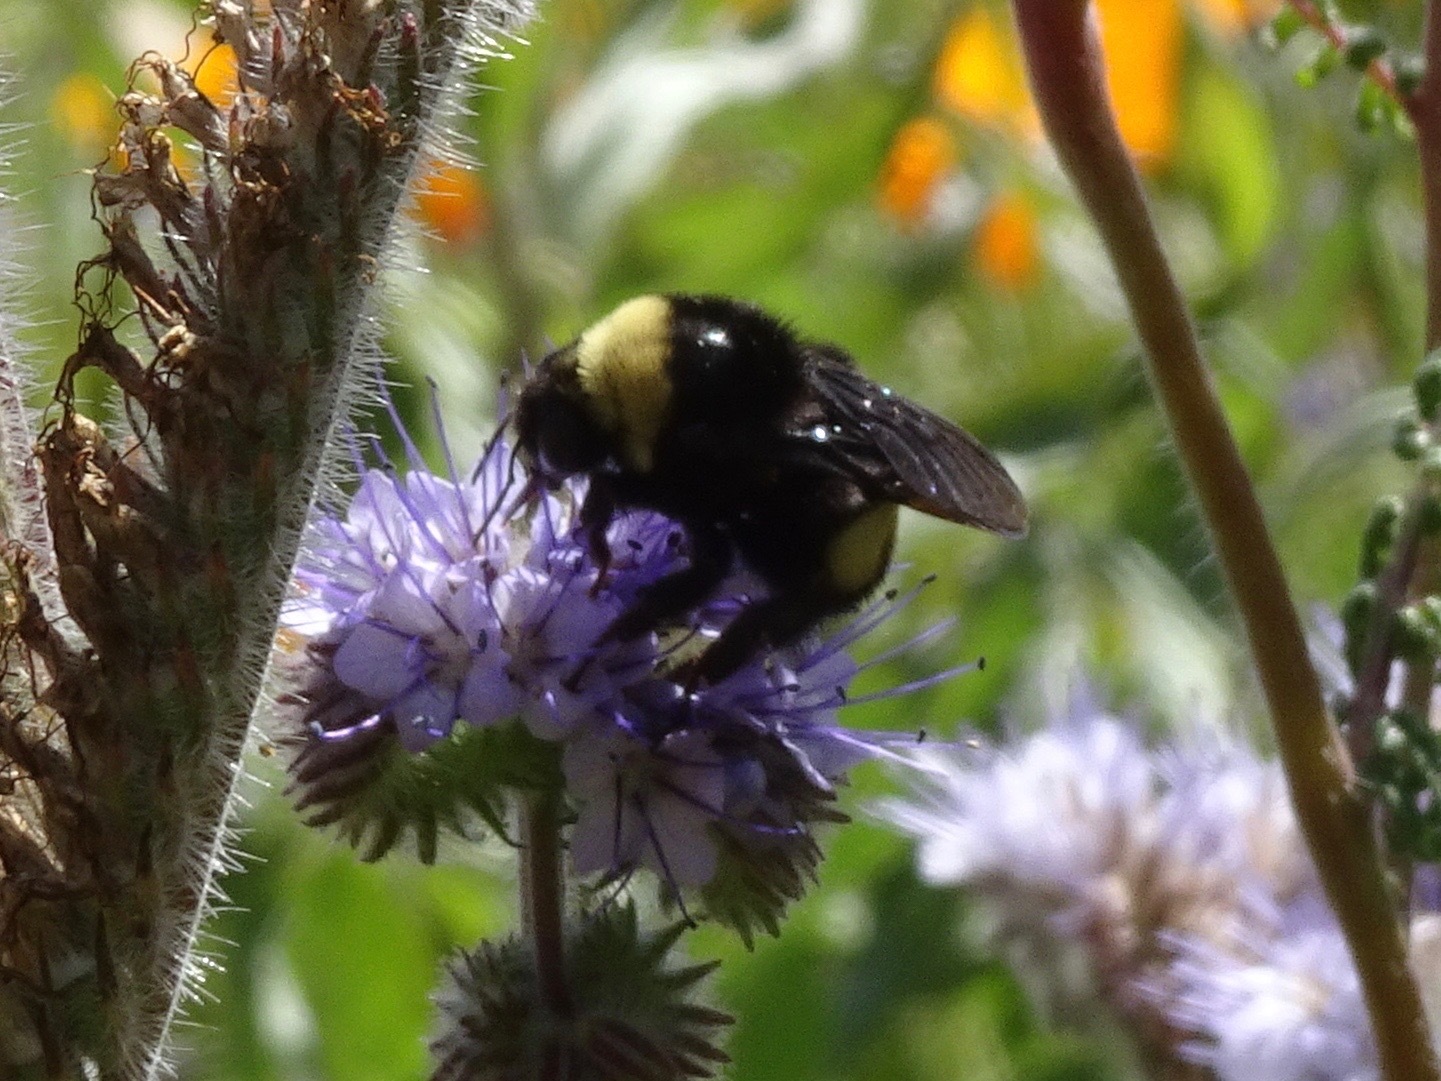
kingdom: Animalia
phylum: Arthropoda
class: Insecta
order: Hymenoptera
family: Apidae
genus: Bombus
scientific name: Bombus crotchii
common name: Crotch bumble bee
